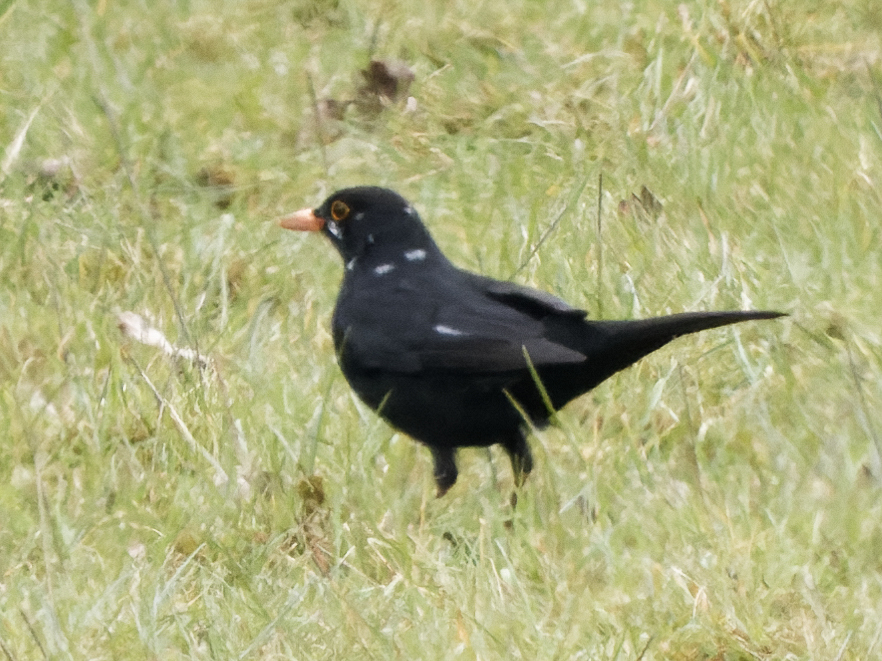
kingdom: Animalia
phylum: Chordata
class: Aves
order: Passeriformes
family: Turdidae
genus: Turdus
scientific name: Turdus merula
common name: Common blackbird
